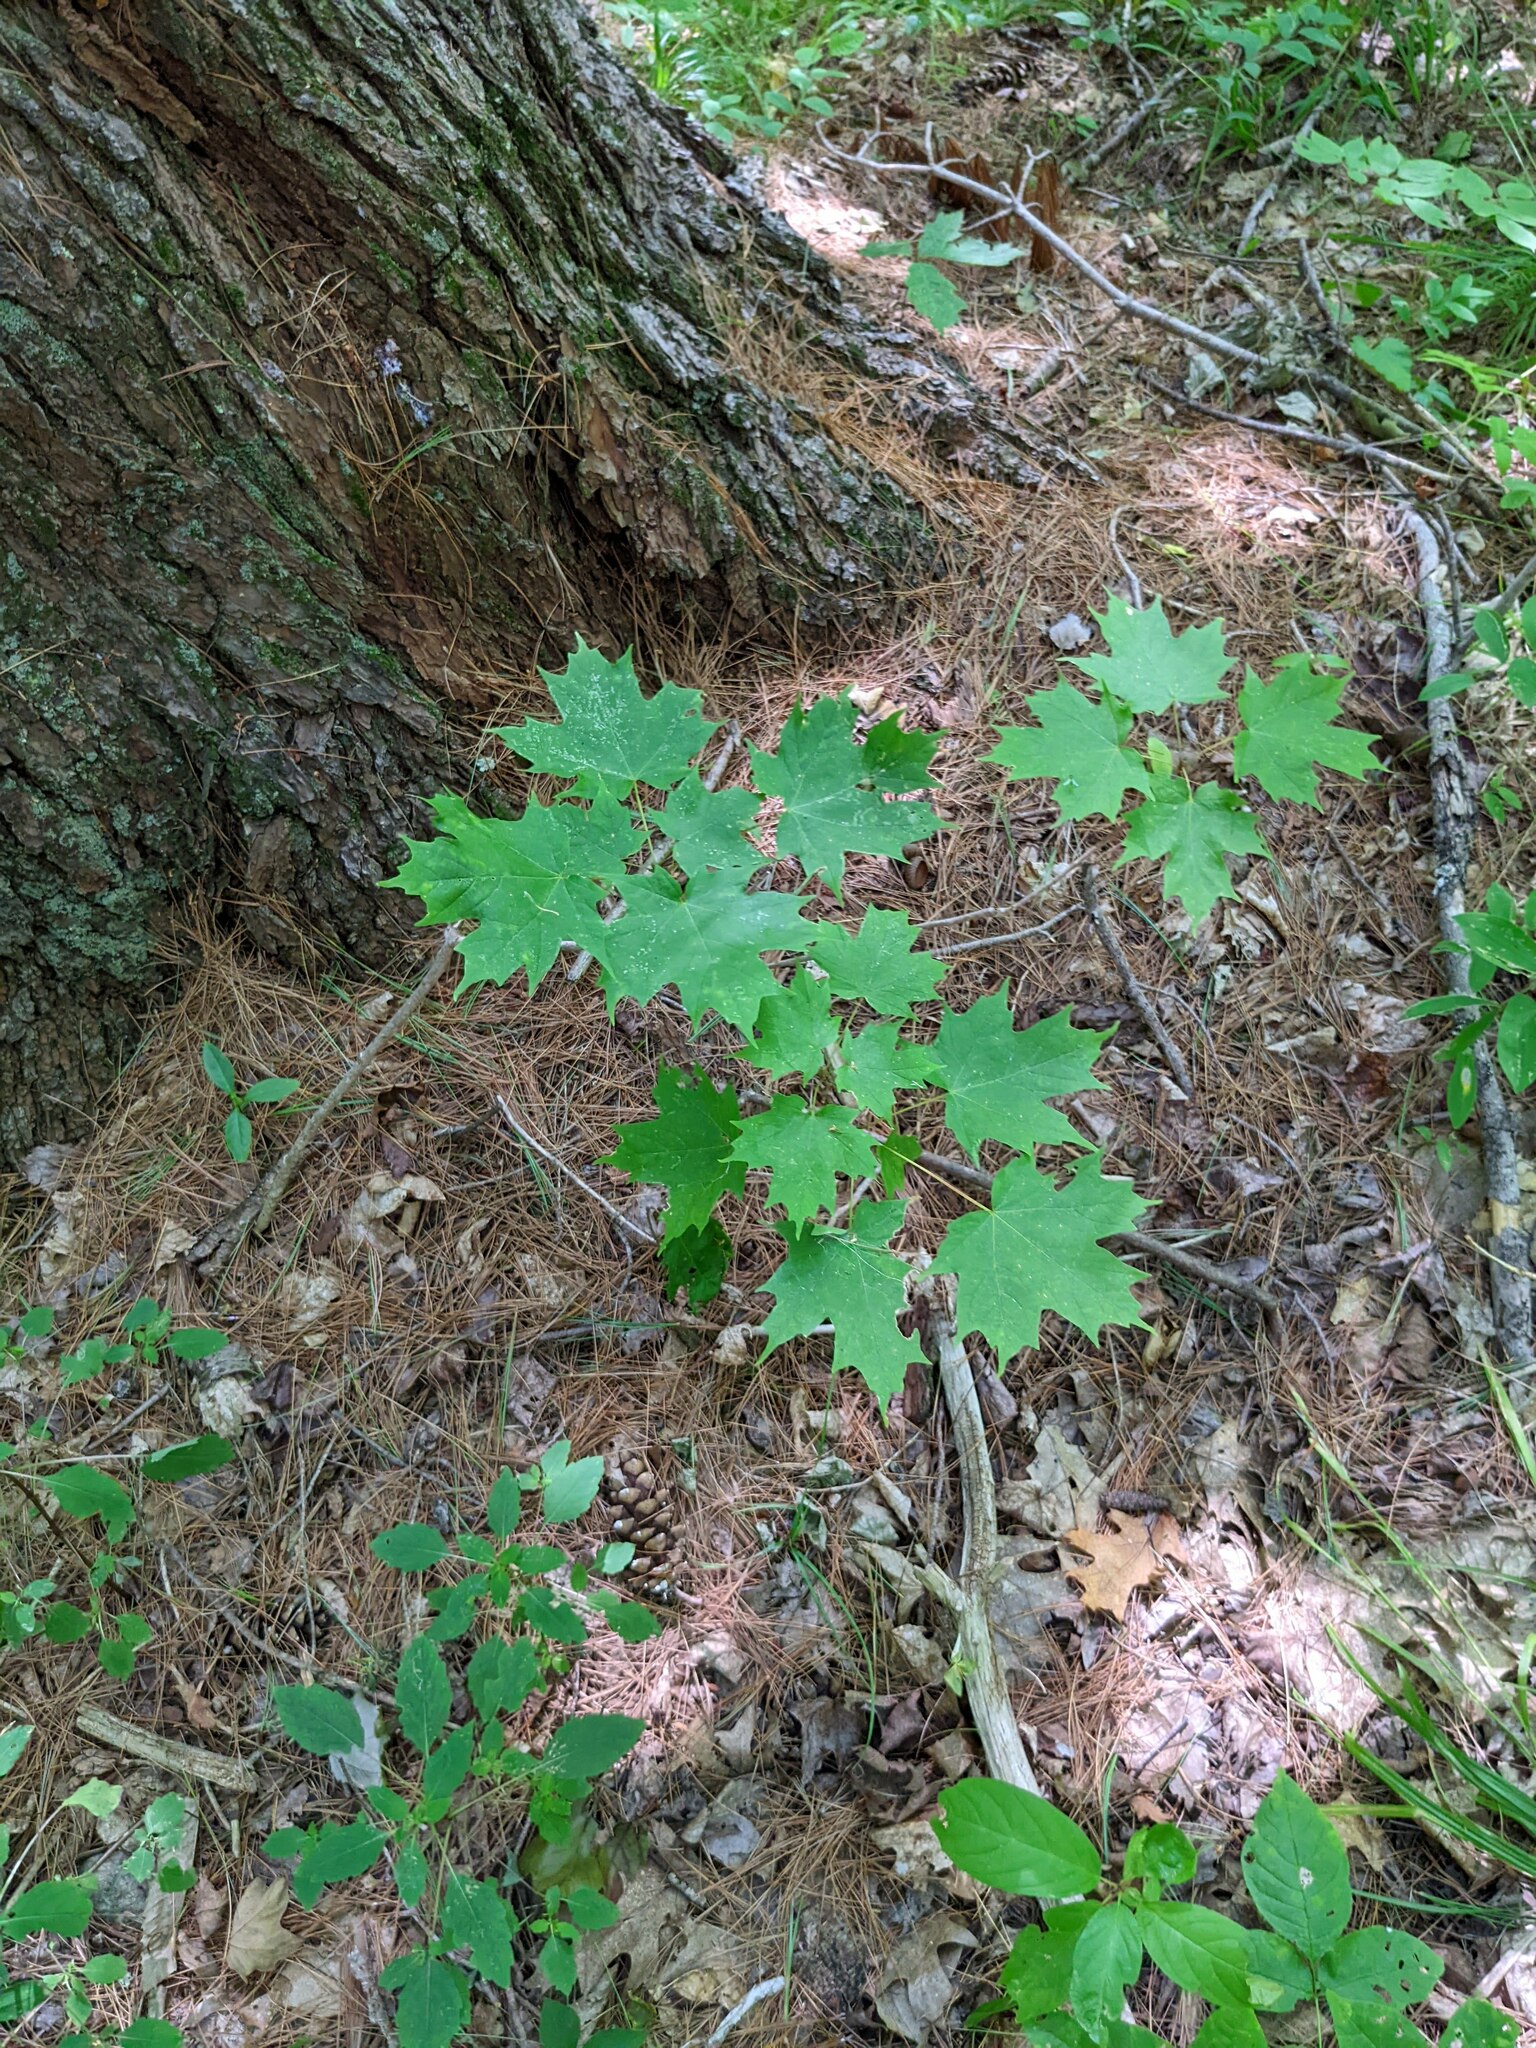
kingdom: Plantae
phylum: Tracheophyta
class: Magnoliopsida
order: Sapindales
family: Sapindaceae
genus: Acer
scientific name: Acer saccharum
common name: Sugar maple
